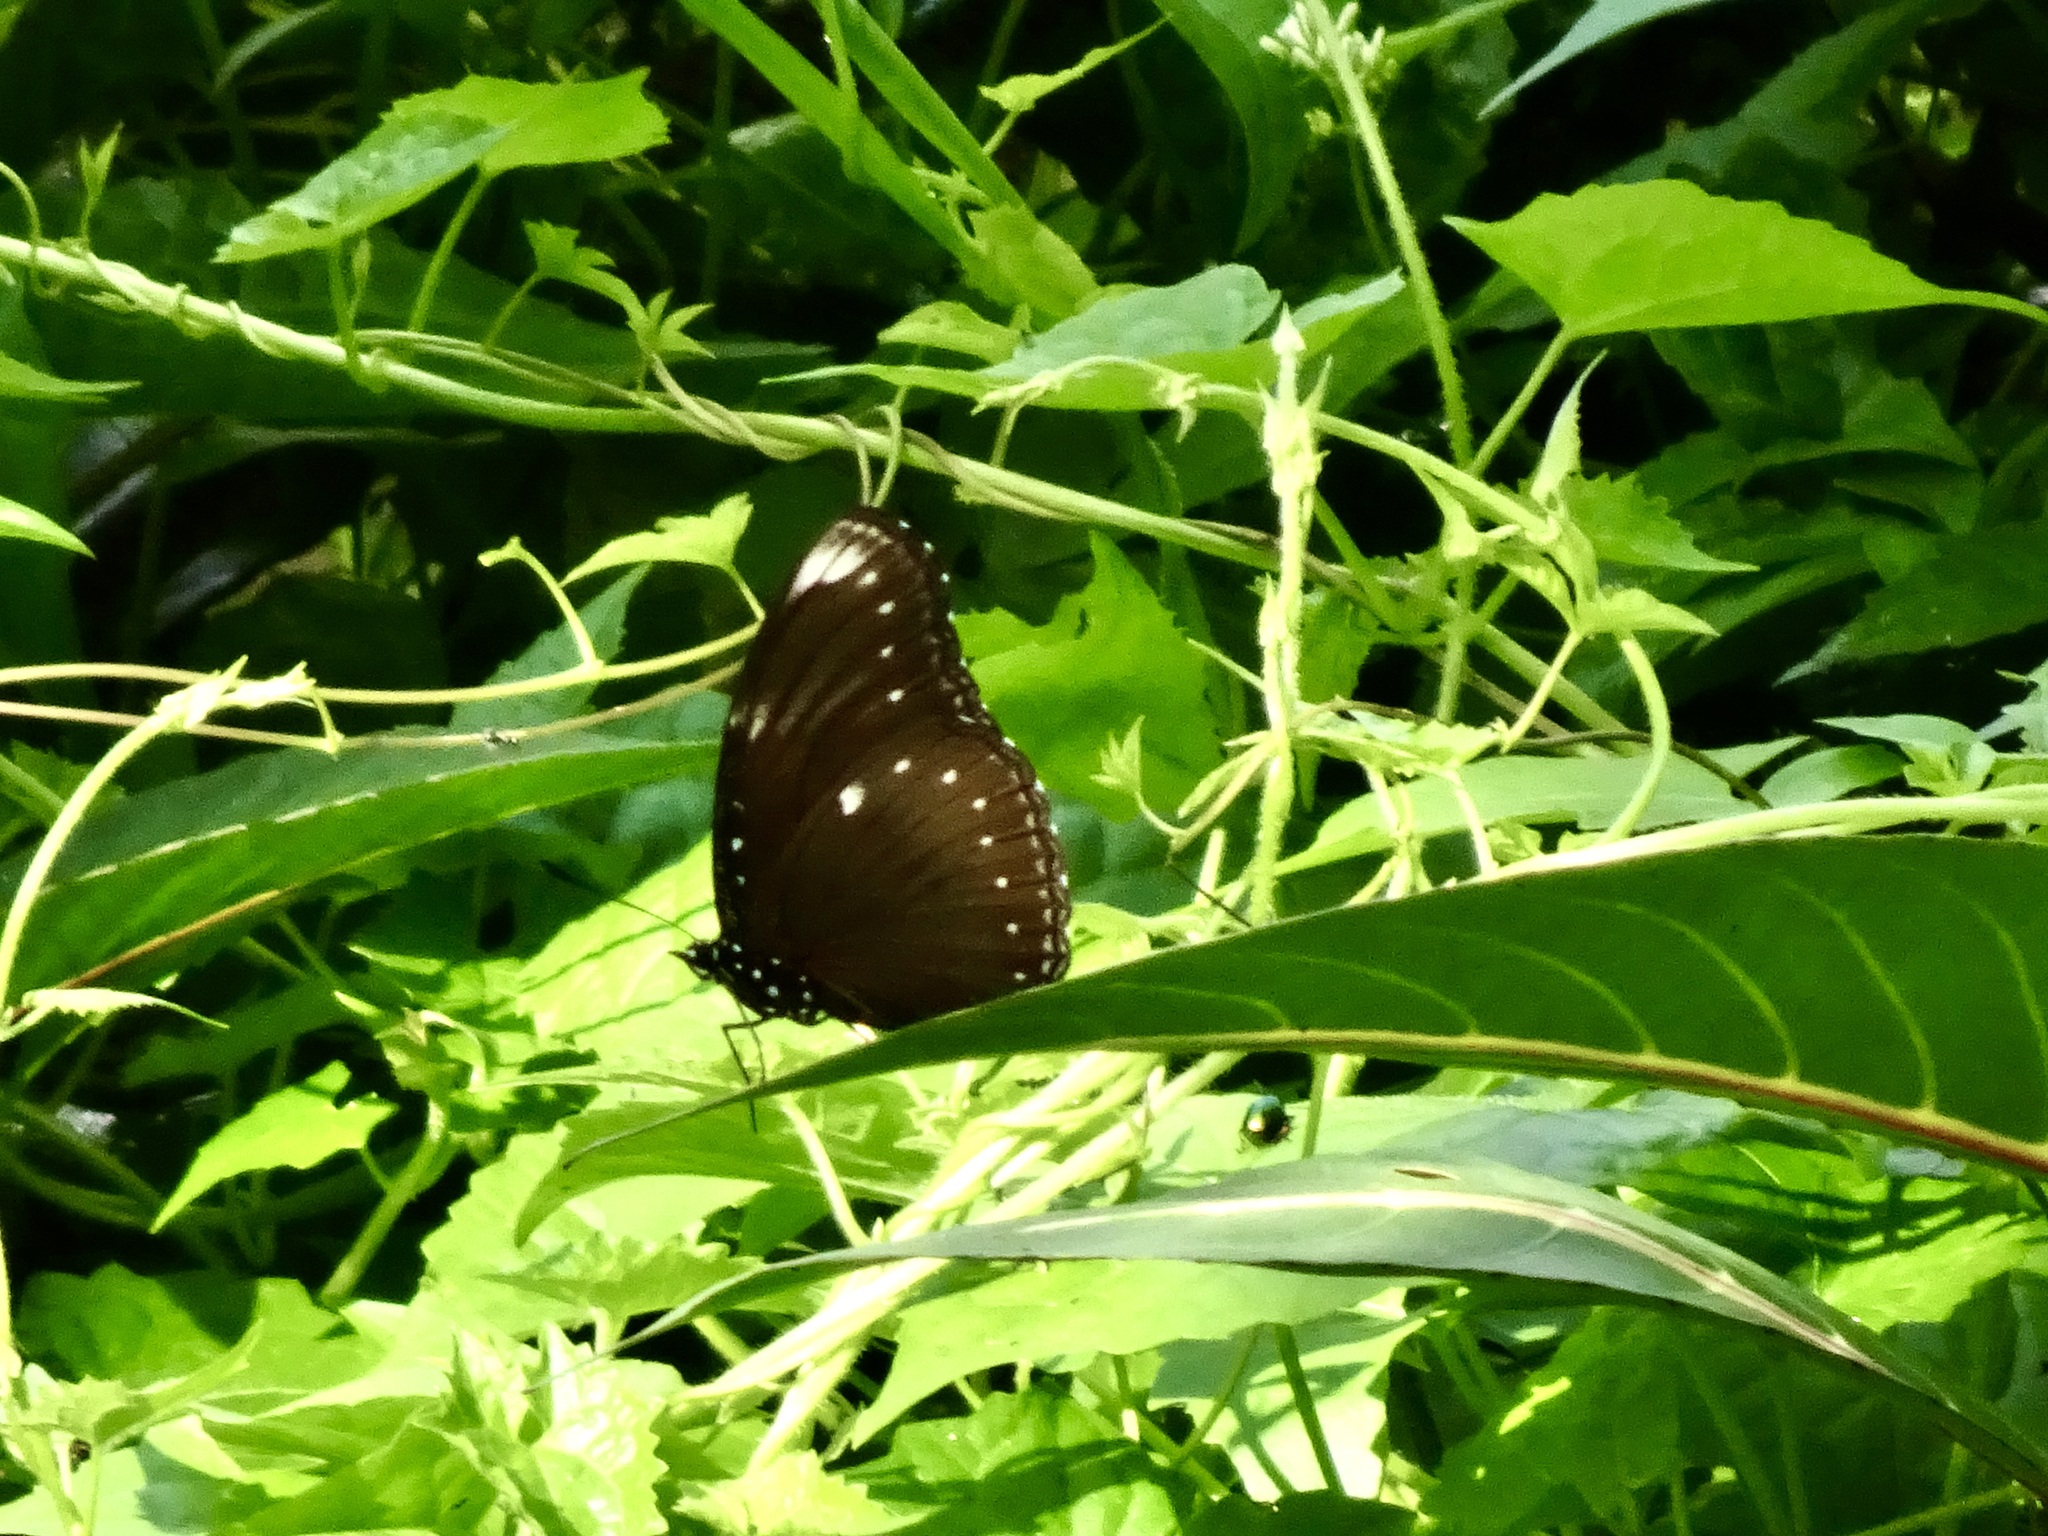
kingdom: Animalia
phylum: Arthropoda
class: Insecta
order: Lepidoptera
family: Nymphalidae
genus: Hypolimnas
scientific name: Hypolimnas anomala
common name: Malayan eggfly
